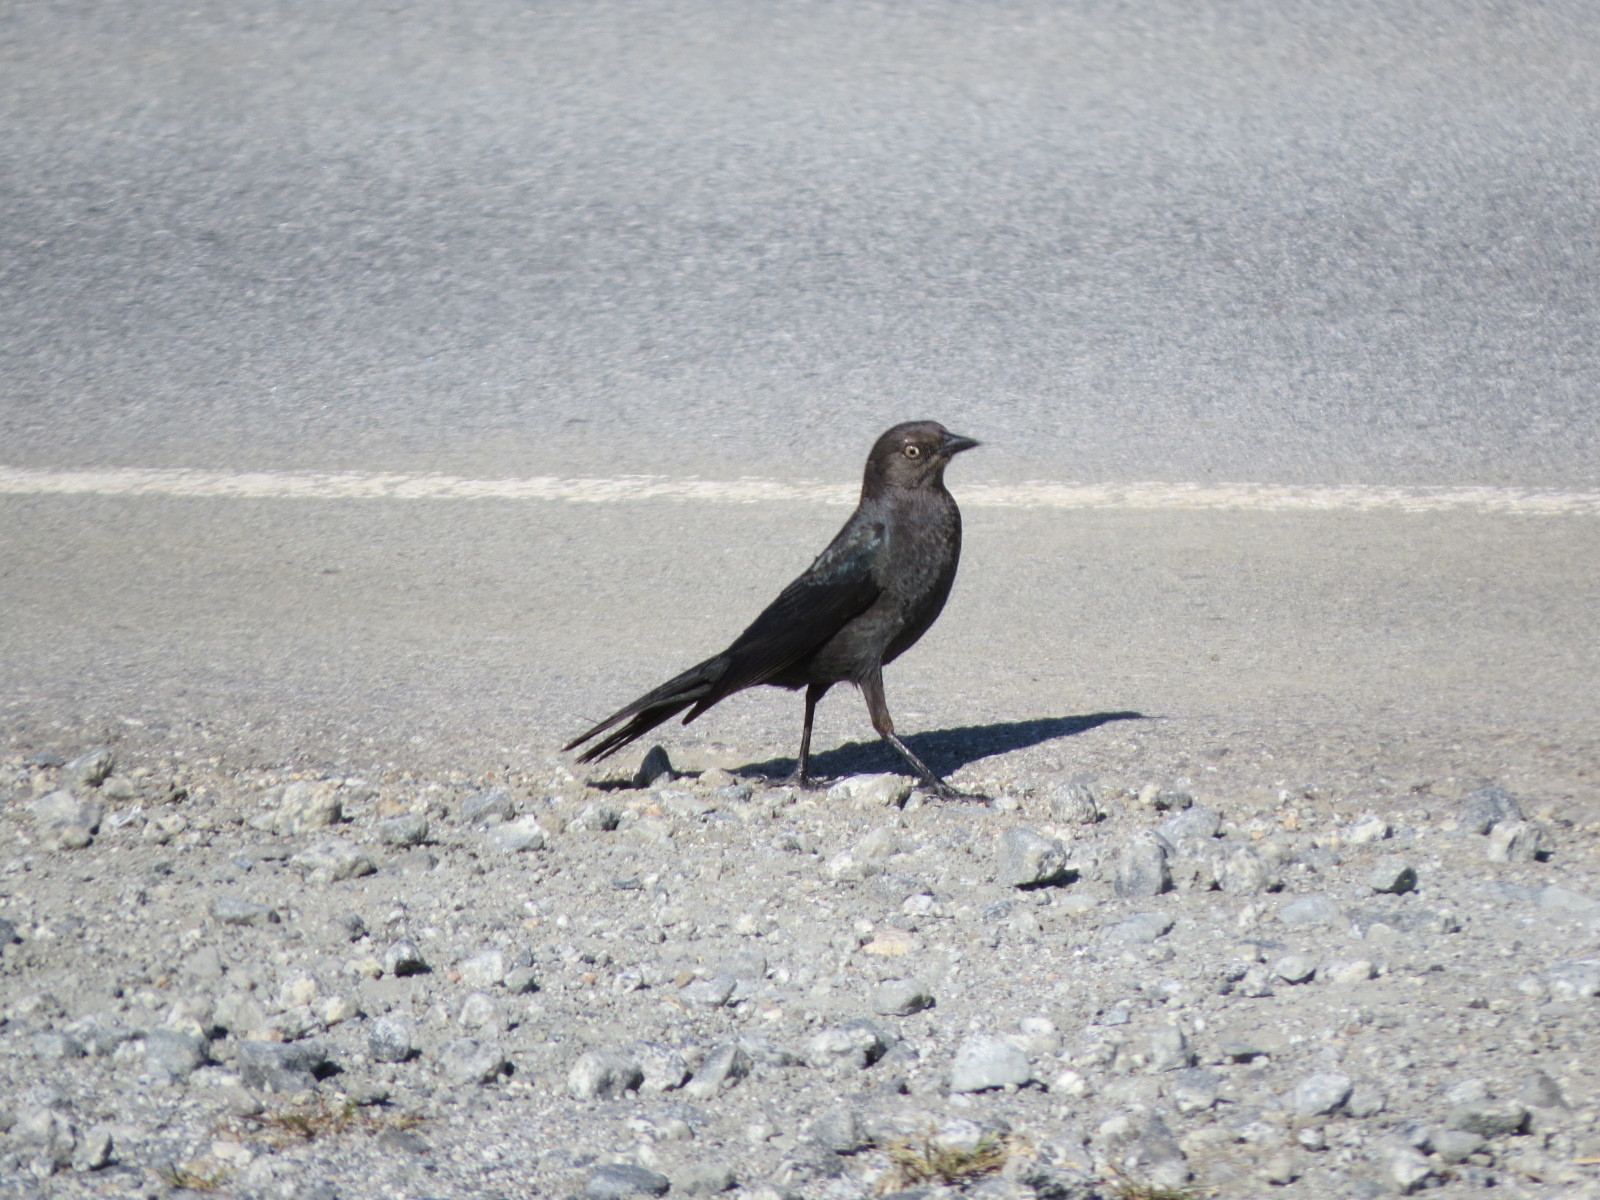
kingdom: Animalia
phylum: Chordata
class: Aves
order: Passeriformes
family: Icteridae
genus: Euphagus
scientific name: Euphagus cyanocephalus
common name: Brewer's blackbird
